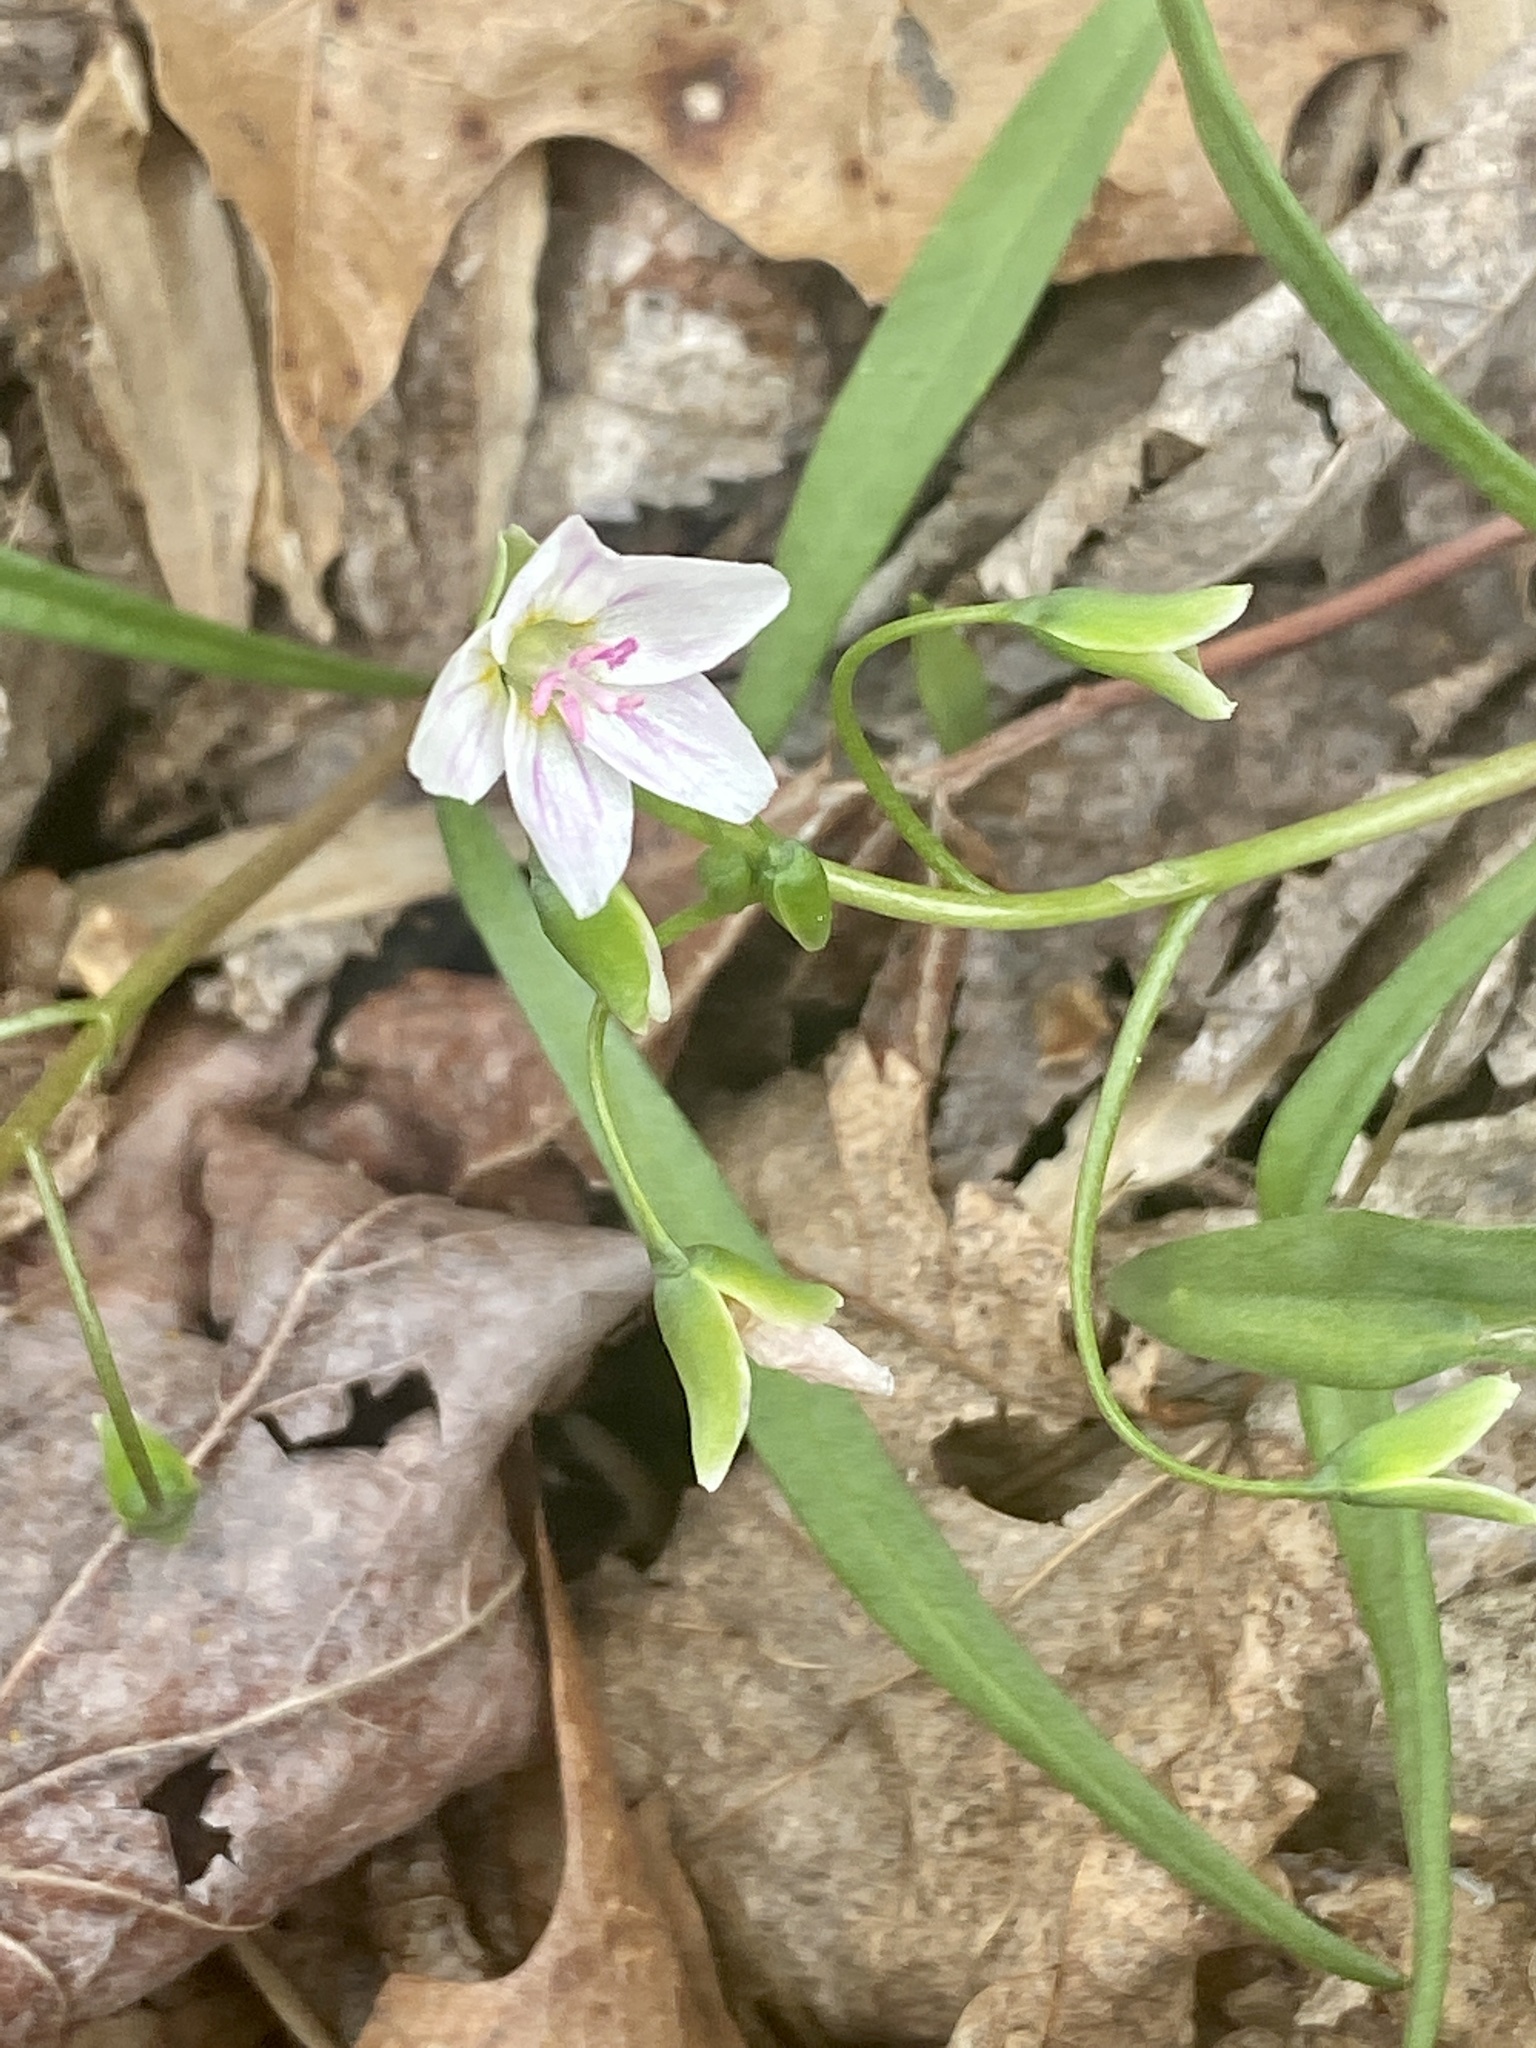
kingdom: Plantae
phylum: Tracheophyta
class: Magnoliopsida
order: Caryophyllales
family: Montiaceae
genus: Claytonia
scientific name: Claytonia virginica
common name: Virginia springbeauty
